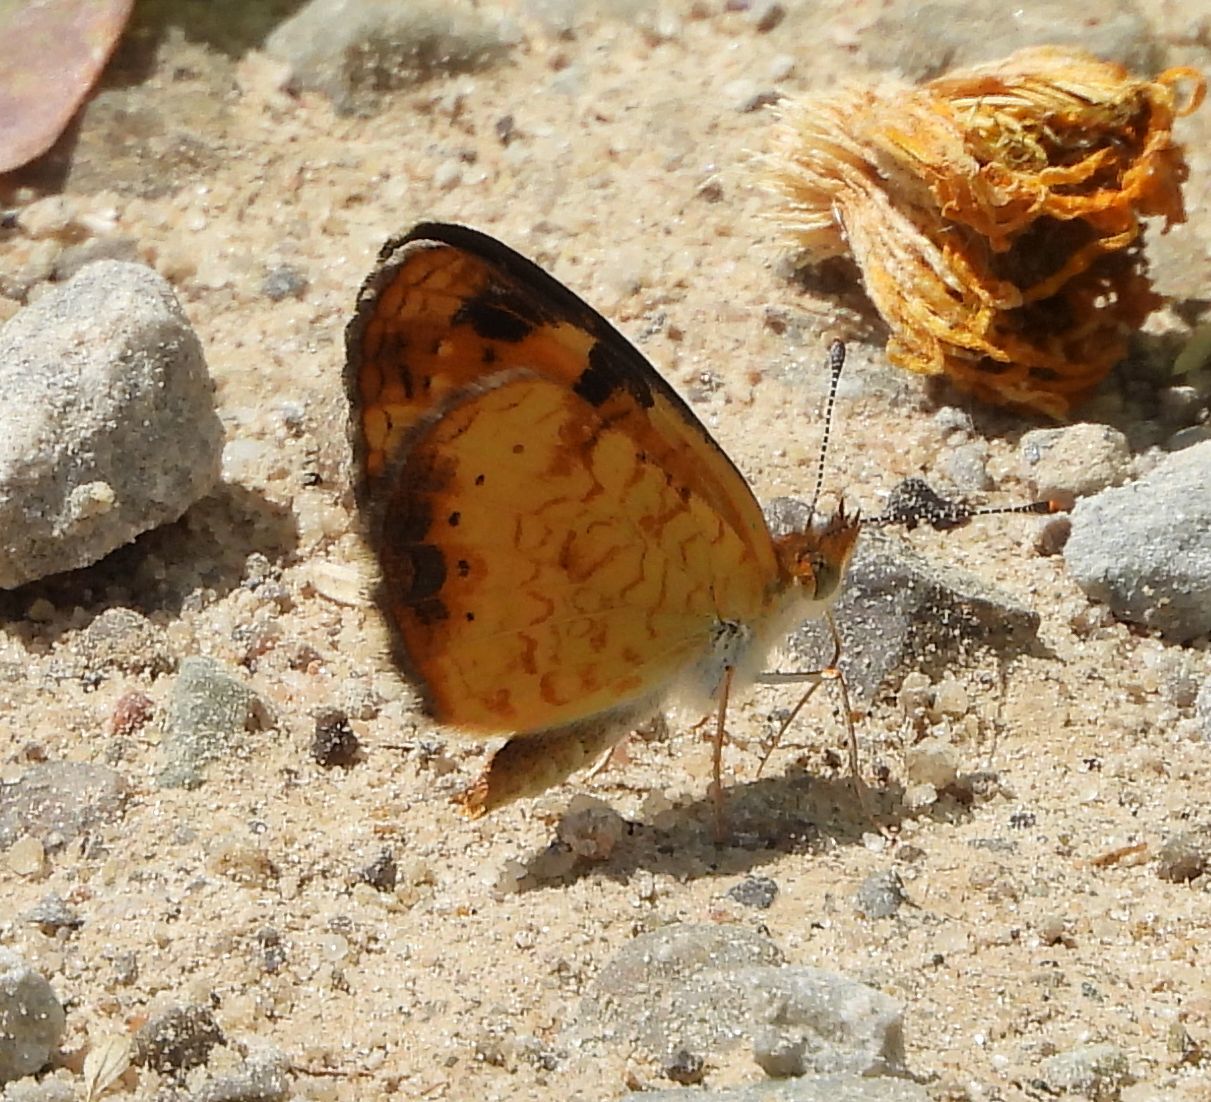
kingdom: Animalia
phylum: Arthropoda
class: Insecta
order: Lepidoptera
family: Nymphalidae
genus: Phyciodes
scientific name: Phyciodes tharos
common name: Pearl crescent
